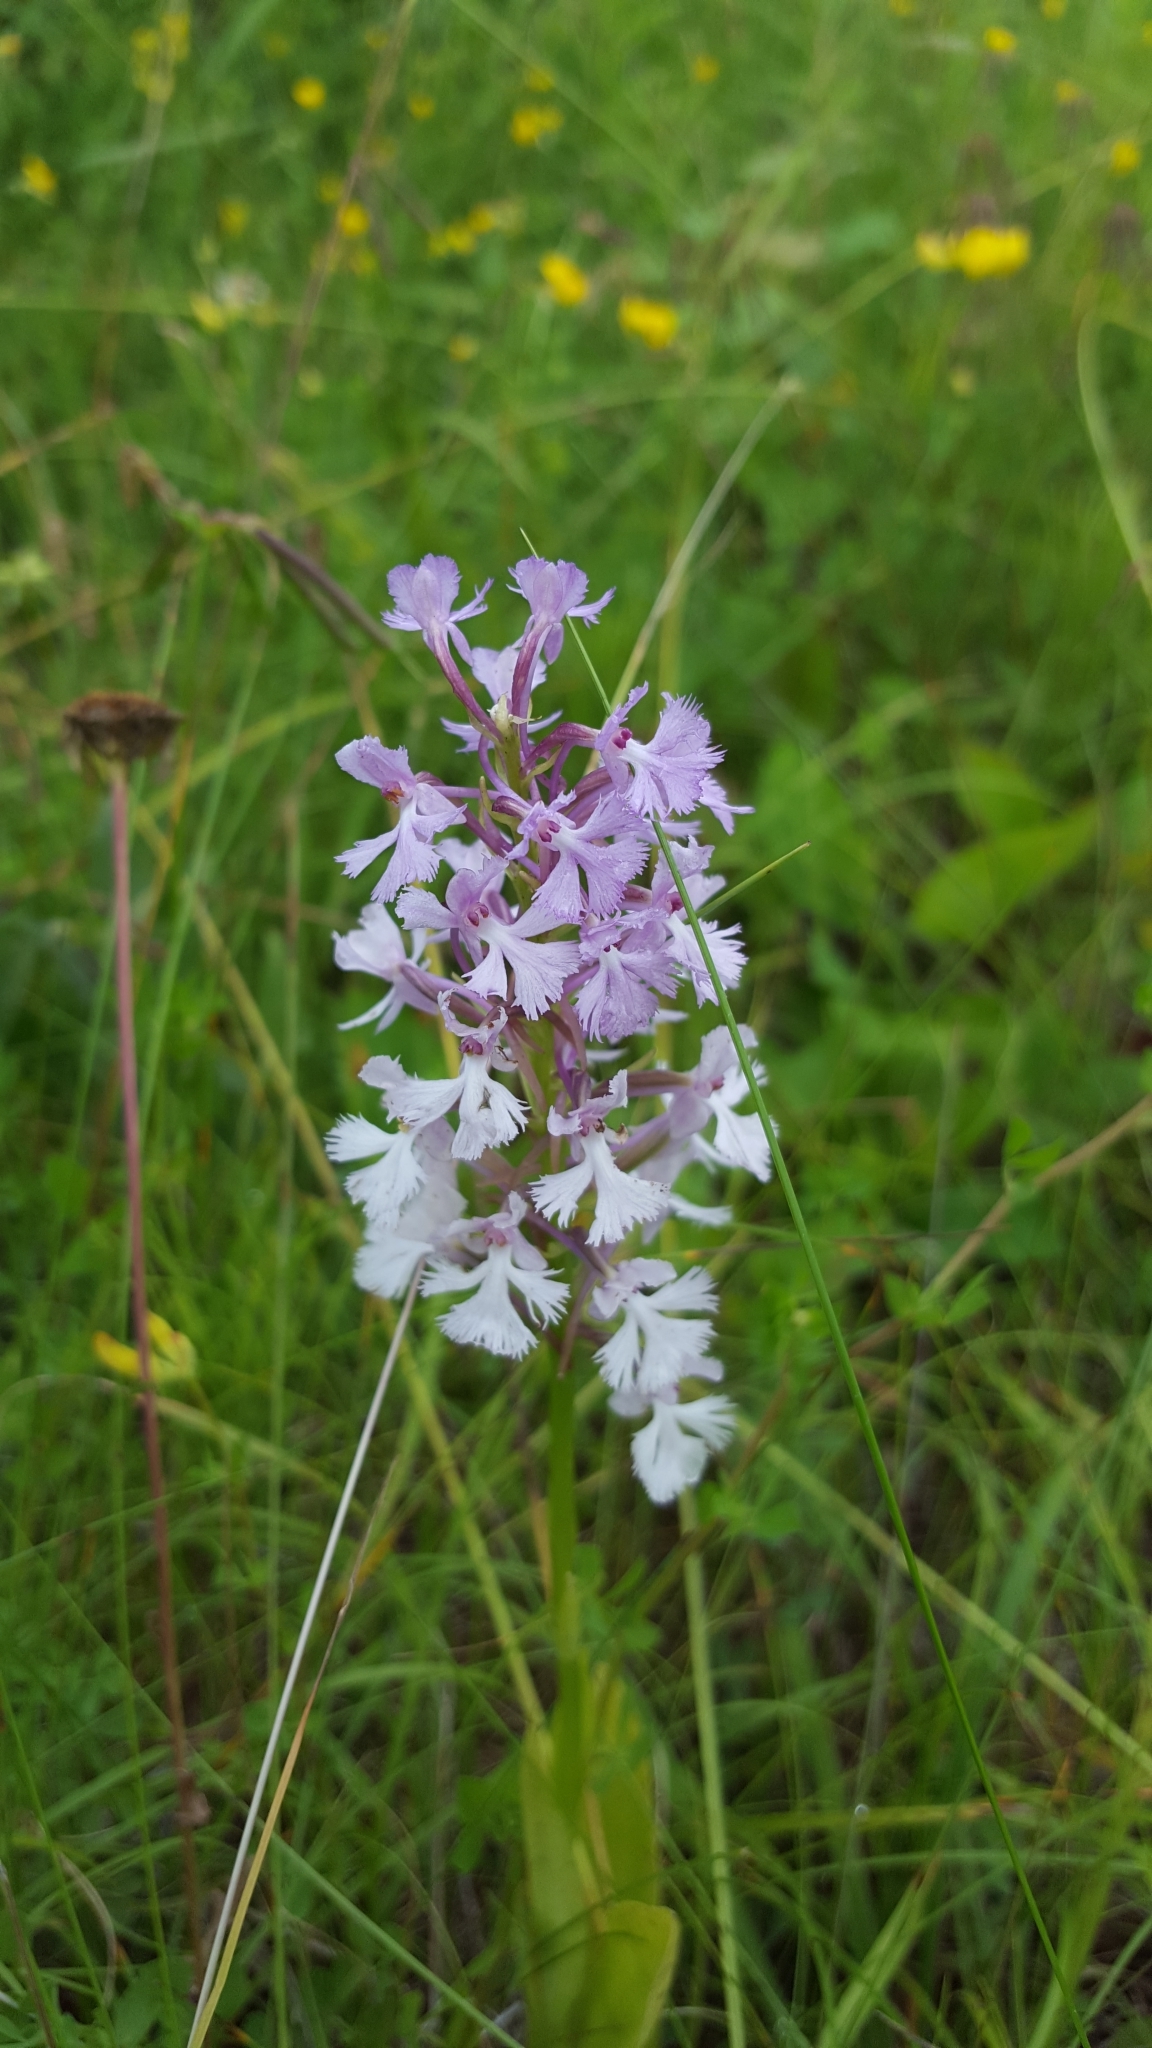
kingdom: Plantae
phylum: Tracheophyta
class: Liliopsida
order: Asparagales
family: Orchidaceae
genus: Platanthera
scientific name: Platanthera psycodes
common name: Lesser purple fringed orchid
